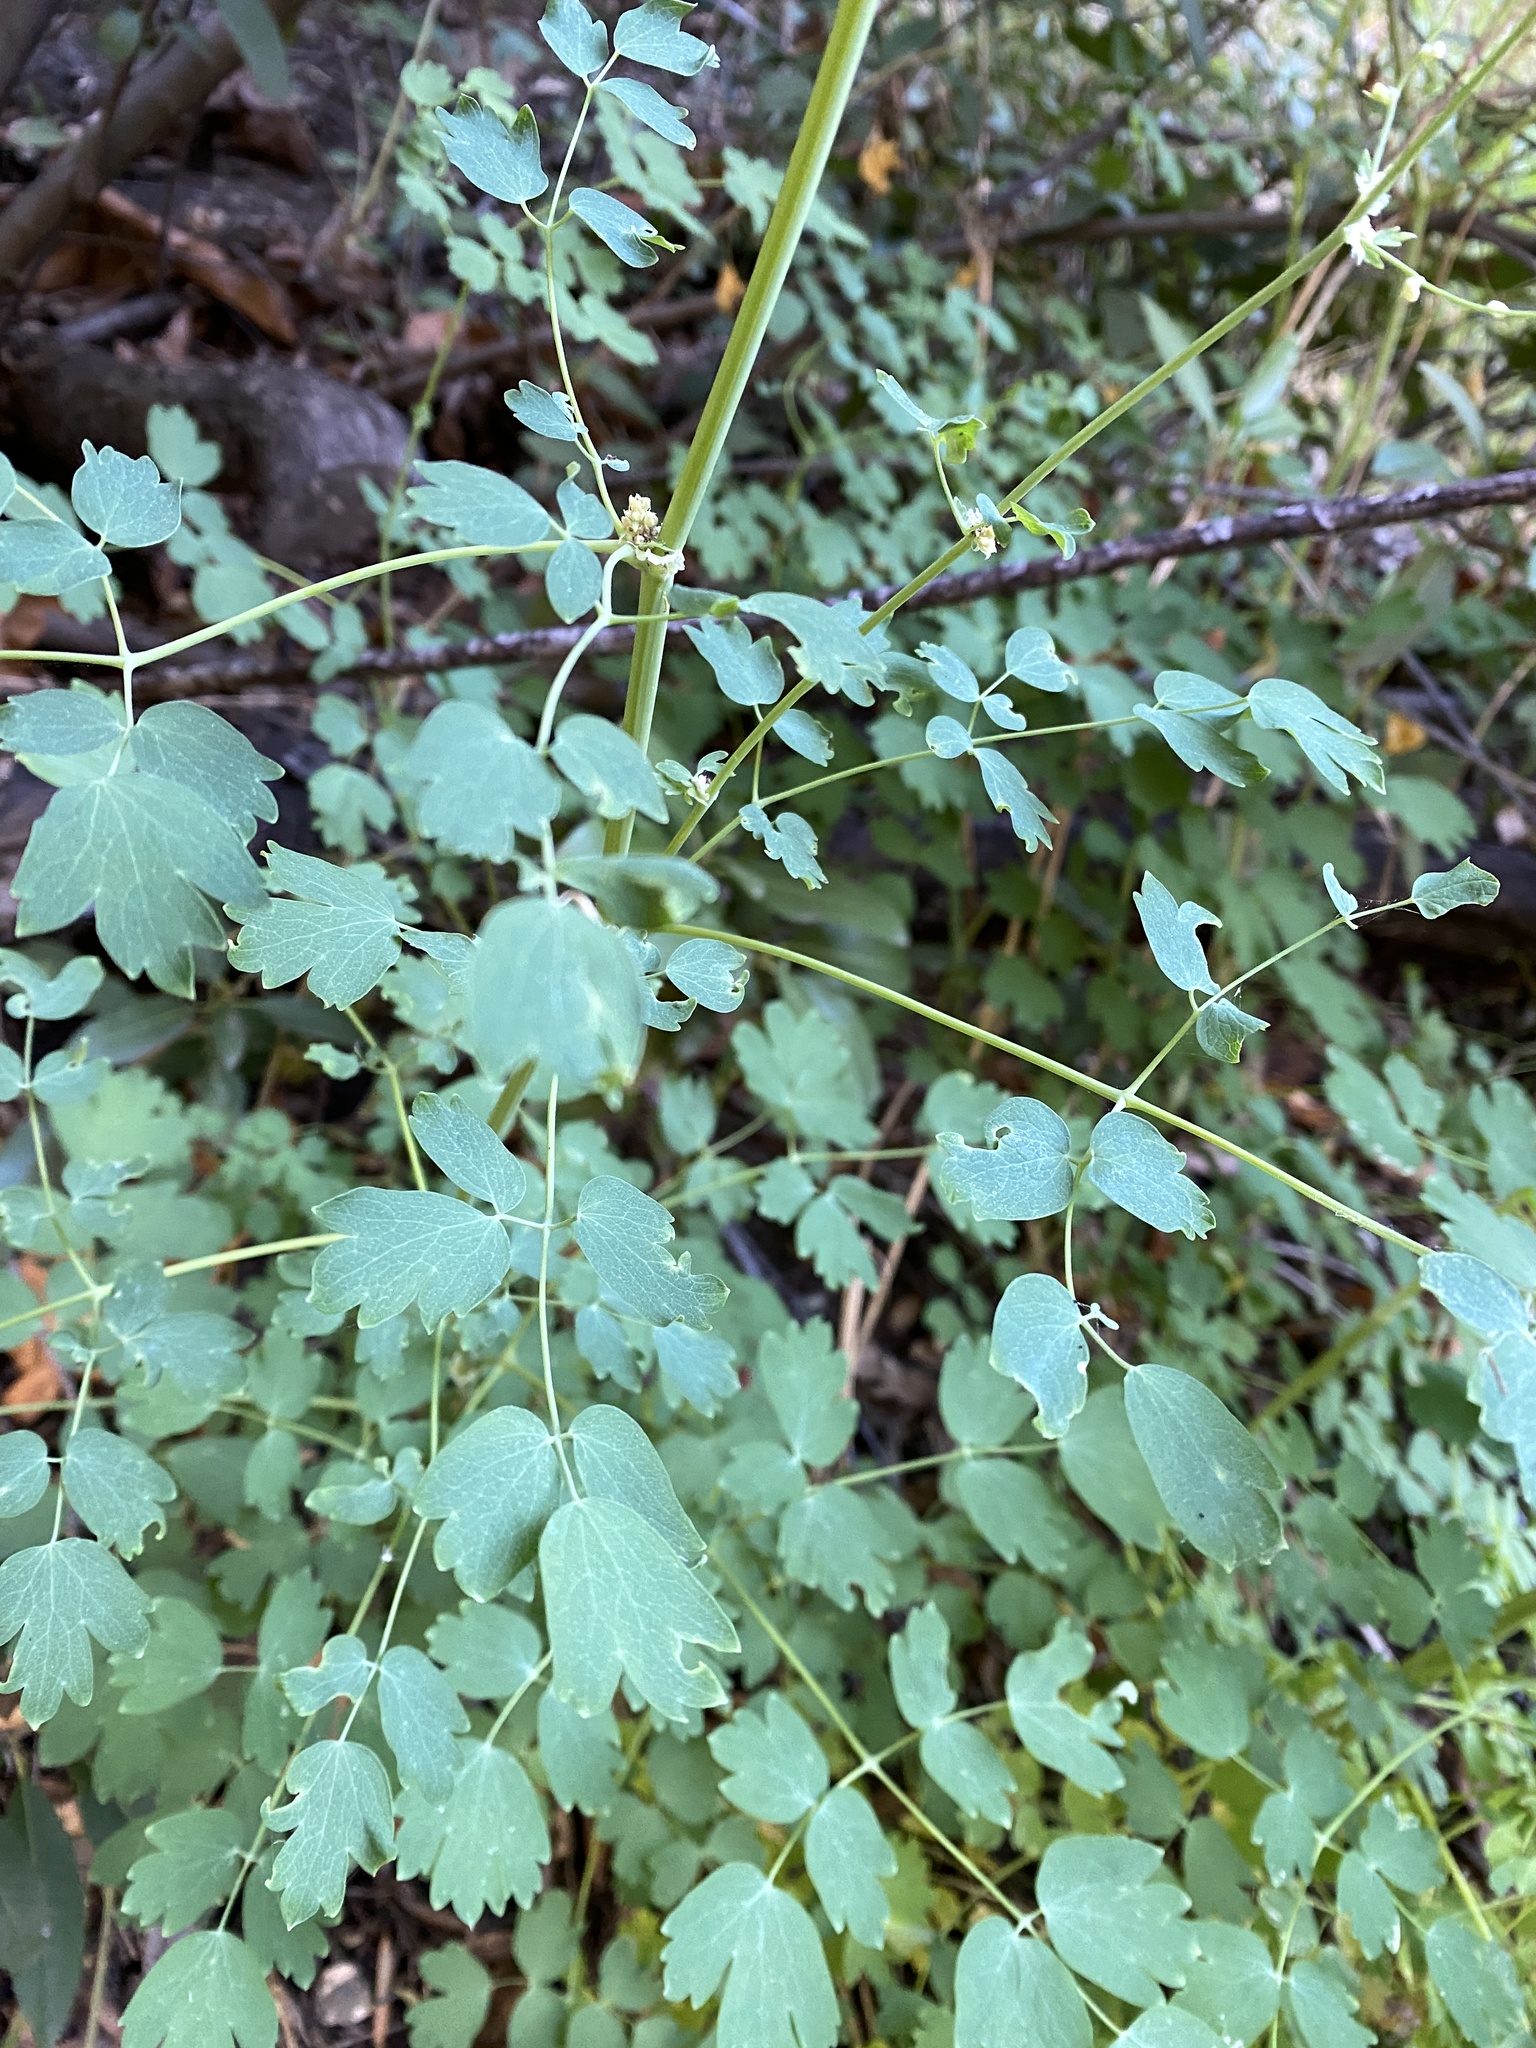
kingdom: Plantae
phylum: Tracheophyta
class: Magnoliopsida
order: Ranunculales
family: Ranunculaceae
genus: Thalictrum
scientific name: Thalictrum fendleri
